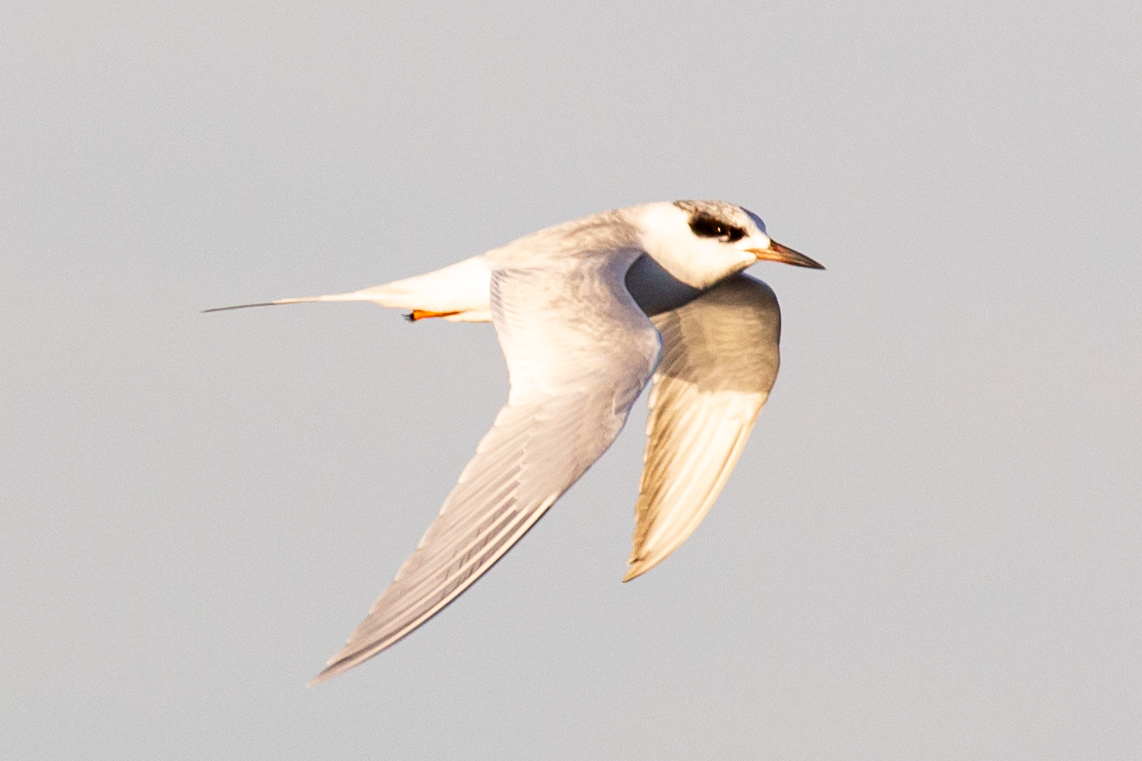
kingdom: Animalia
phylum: Chordata
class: Aves
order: Charadriiformes
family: Laridae
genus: Sterna
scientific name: Sterna forsteri
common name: Forster's tern
